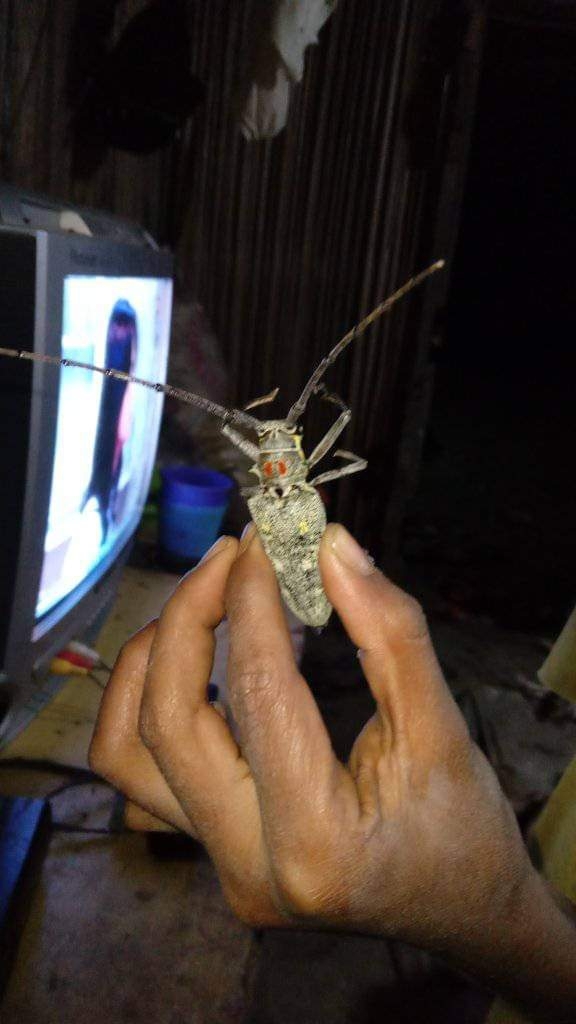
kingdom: Animalia
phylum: Arthropoda
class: Insecta
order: Coleoptera
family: Cerambycidae
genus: Batocera
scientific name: Batocera humeridens
